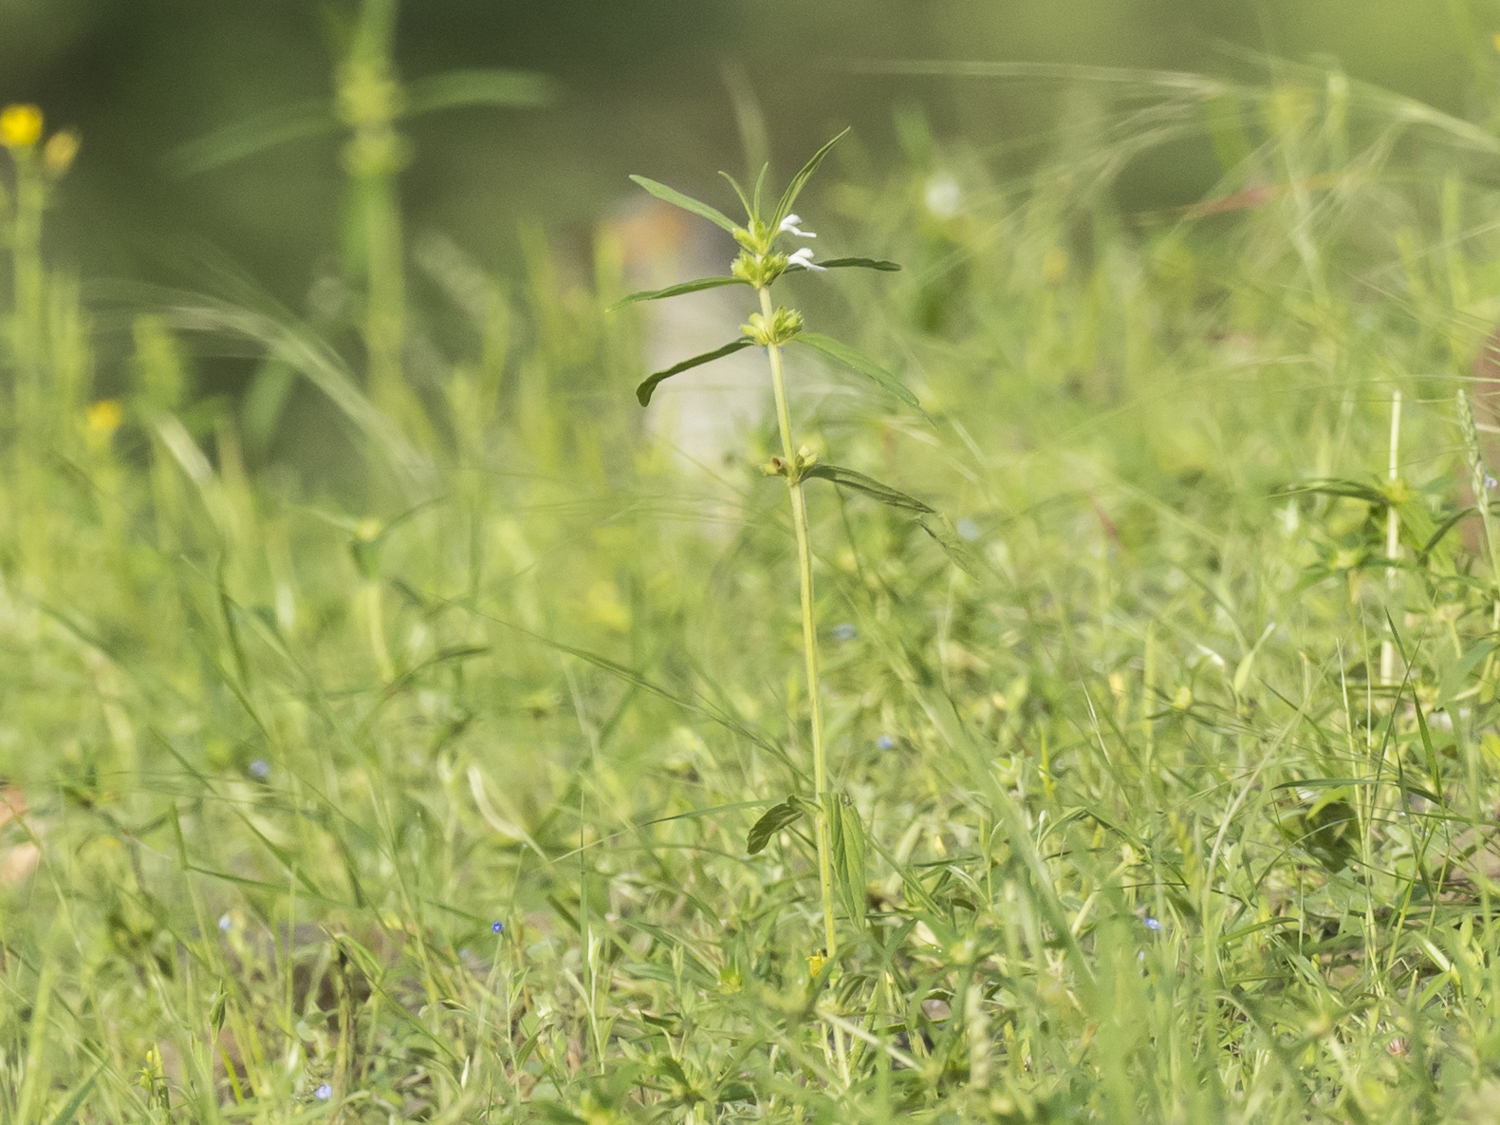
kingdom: Plantae
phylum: Tracheophyta
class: Magnoliopsida
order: Lamiales
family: Lamiaceae
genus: Leucas
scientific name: Leucas aspera
